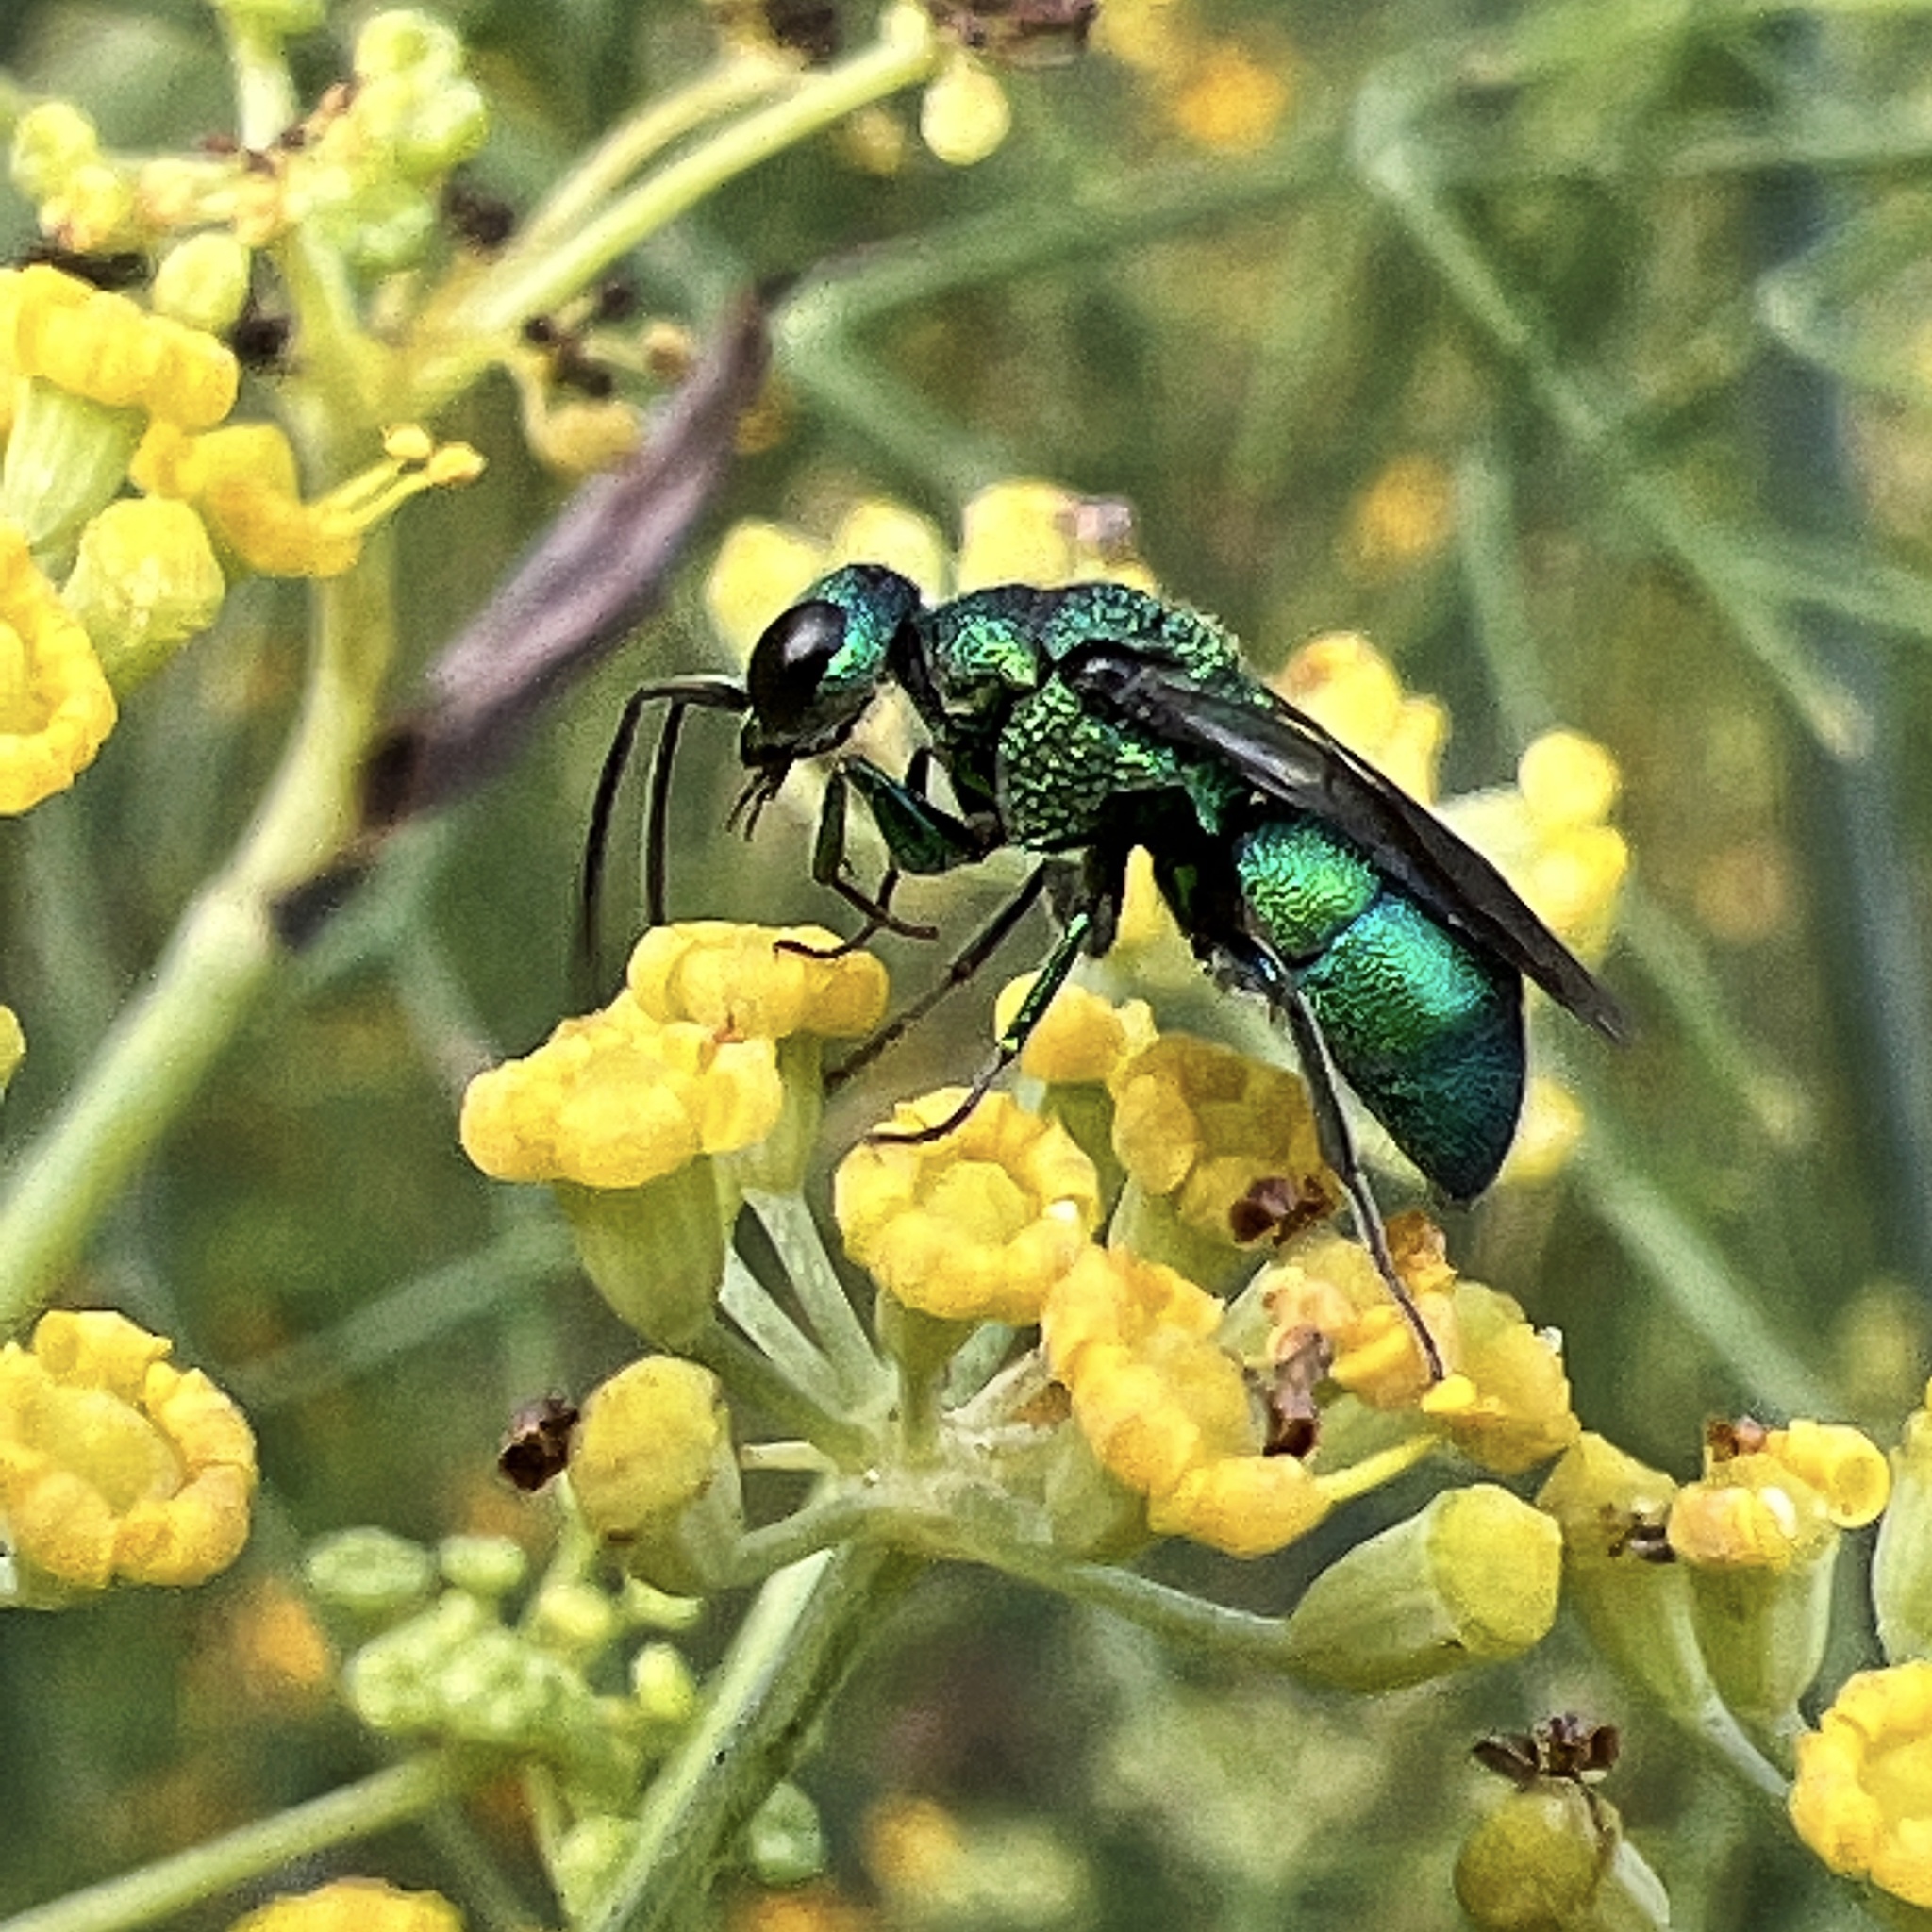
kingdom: Animalia
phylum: Arthropoda
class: Insecta
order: Hymenoptera
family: Chrysididae
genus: Holopyga
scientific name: Holopyga
